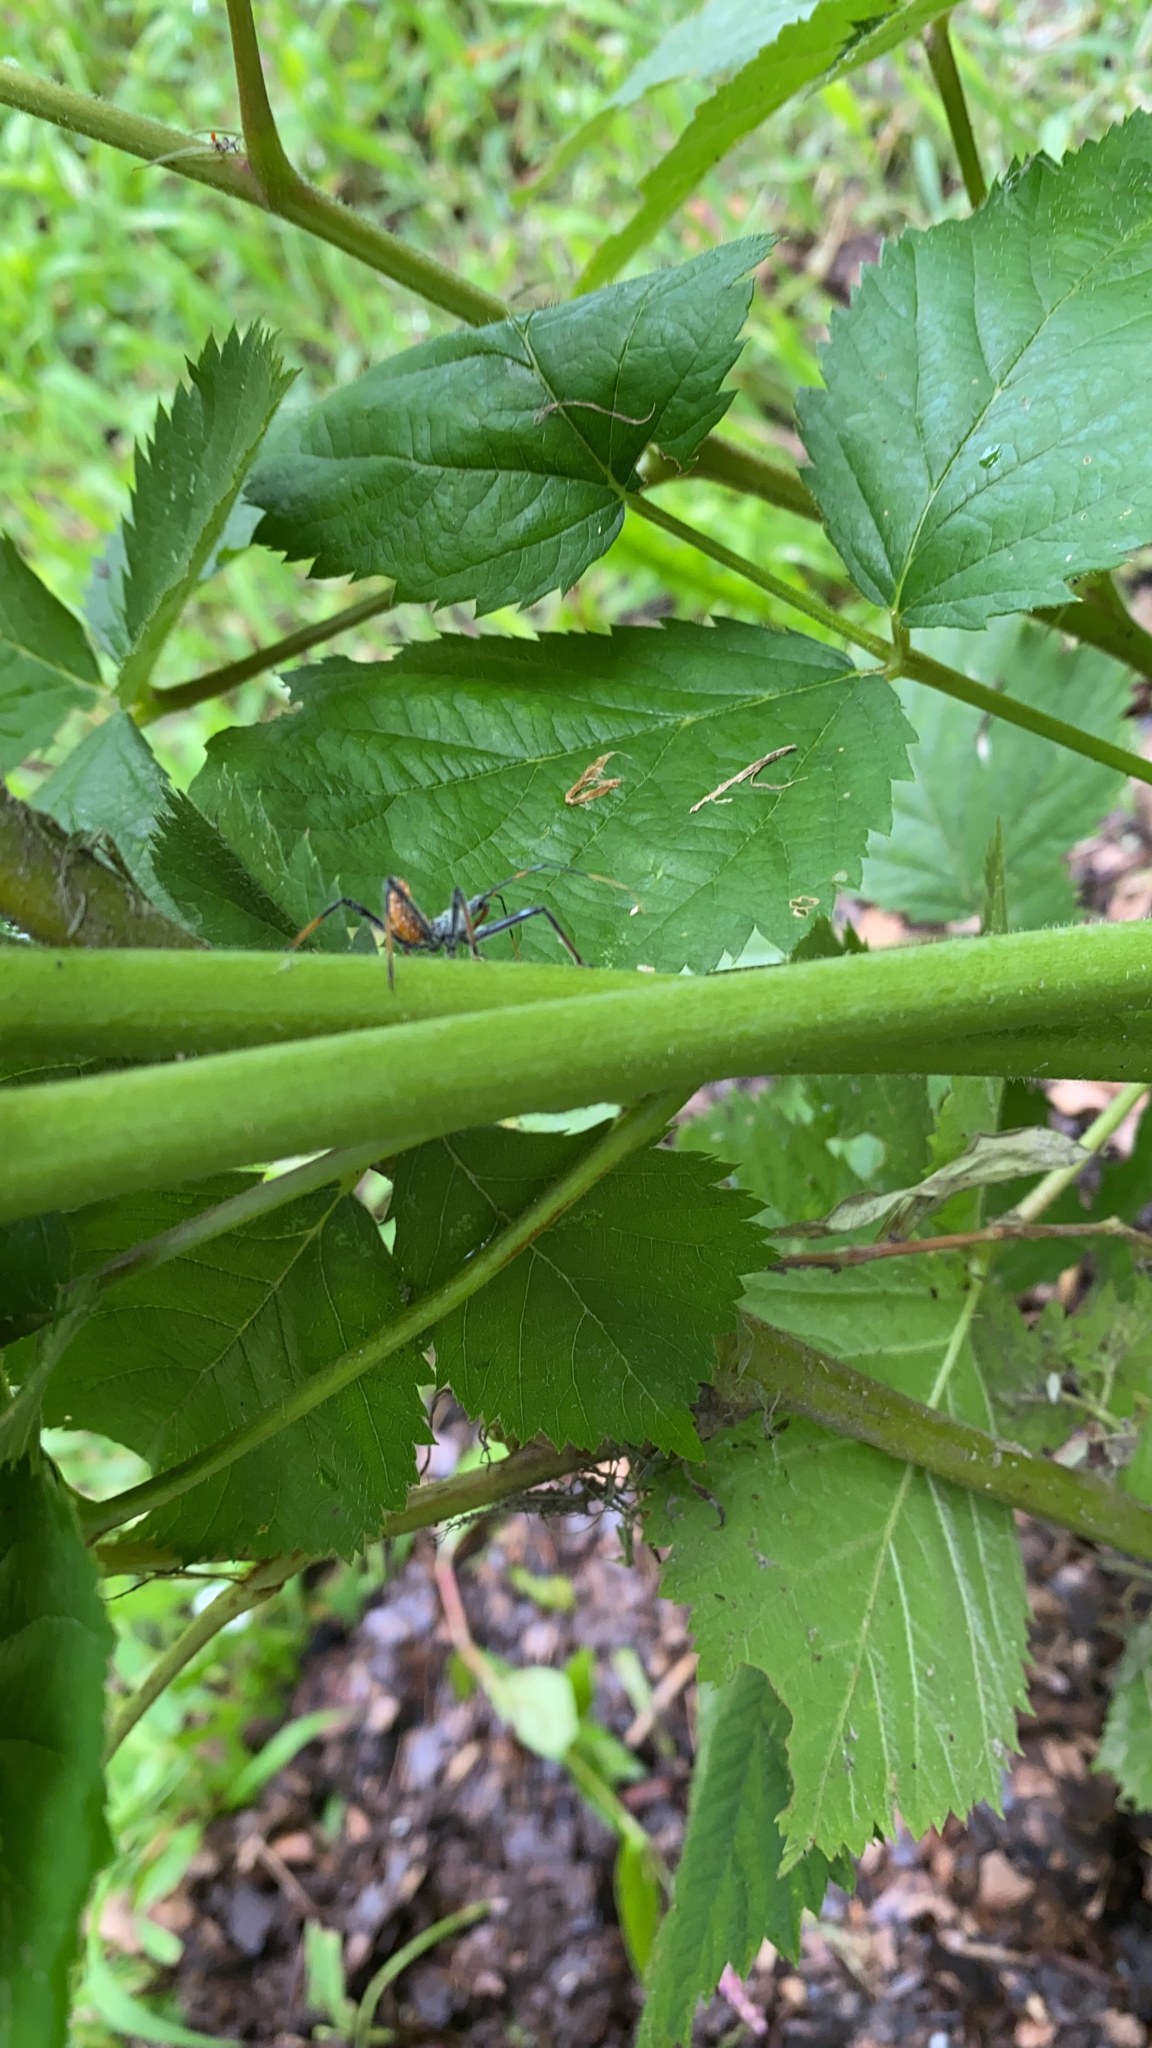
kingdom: Animalia
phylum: Arthropoda
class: Insecta
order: Hemiptera
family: Reduviidae
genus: Arilus
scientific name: Arilus cristatus
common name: North american wheel bug
